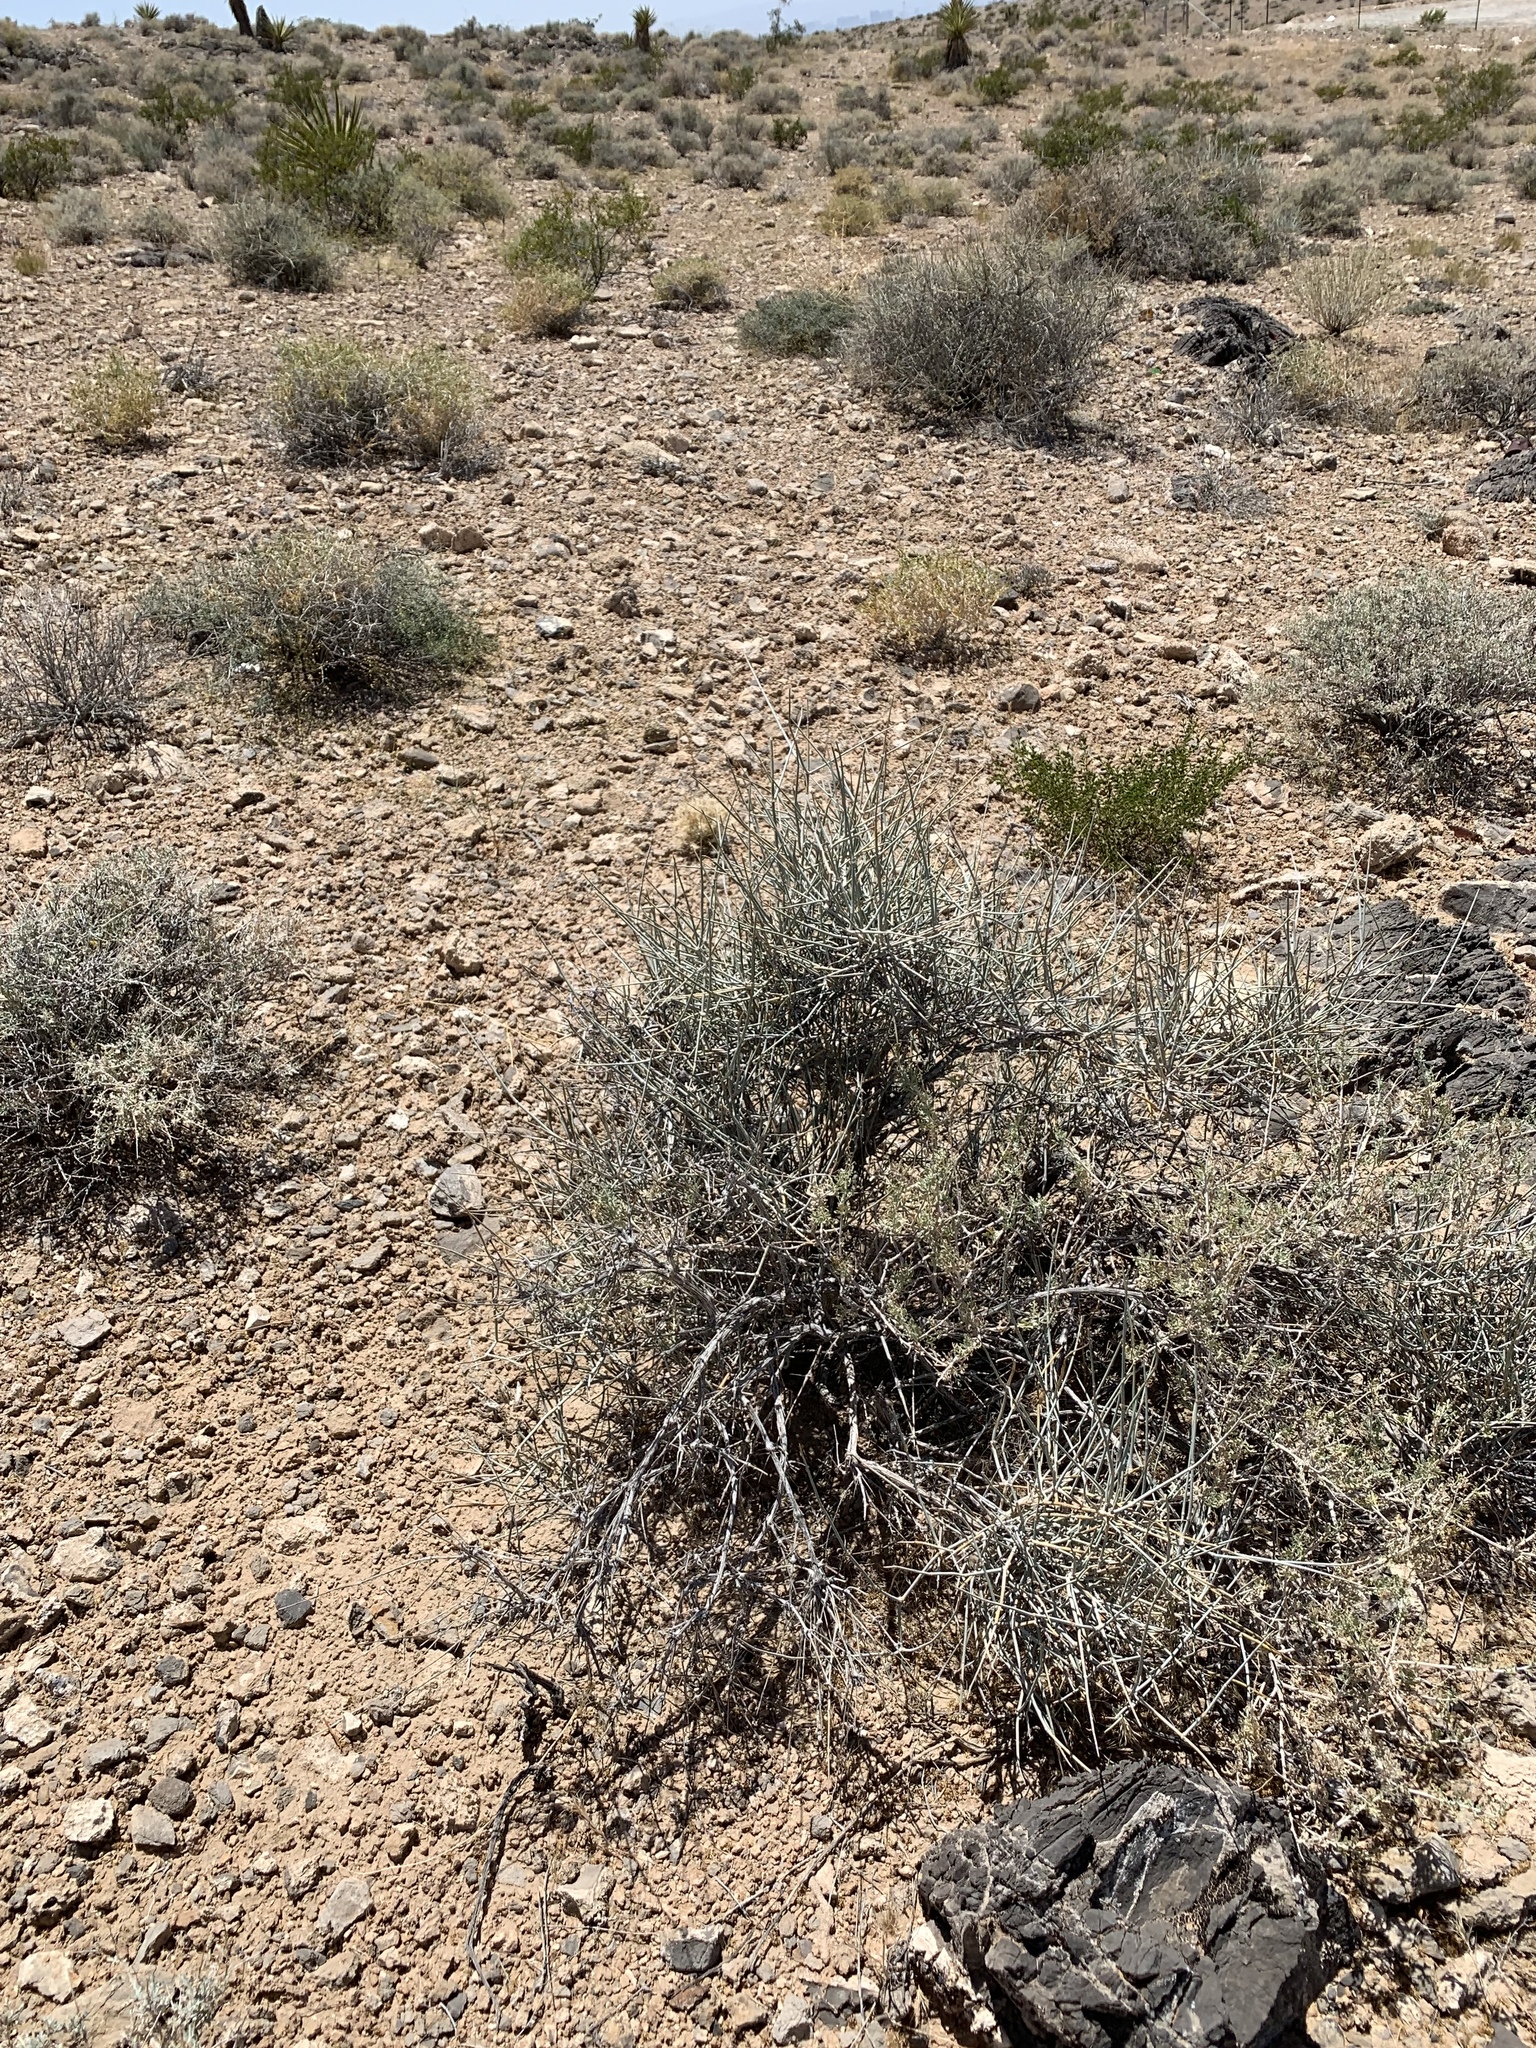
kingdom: Plantae
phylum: Tracheophyta
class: Gnetopsida
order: Ephedrales
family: Ephedraceae
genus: Ephedra
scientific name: Ephedra nevadensis
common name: Gray ephedra
